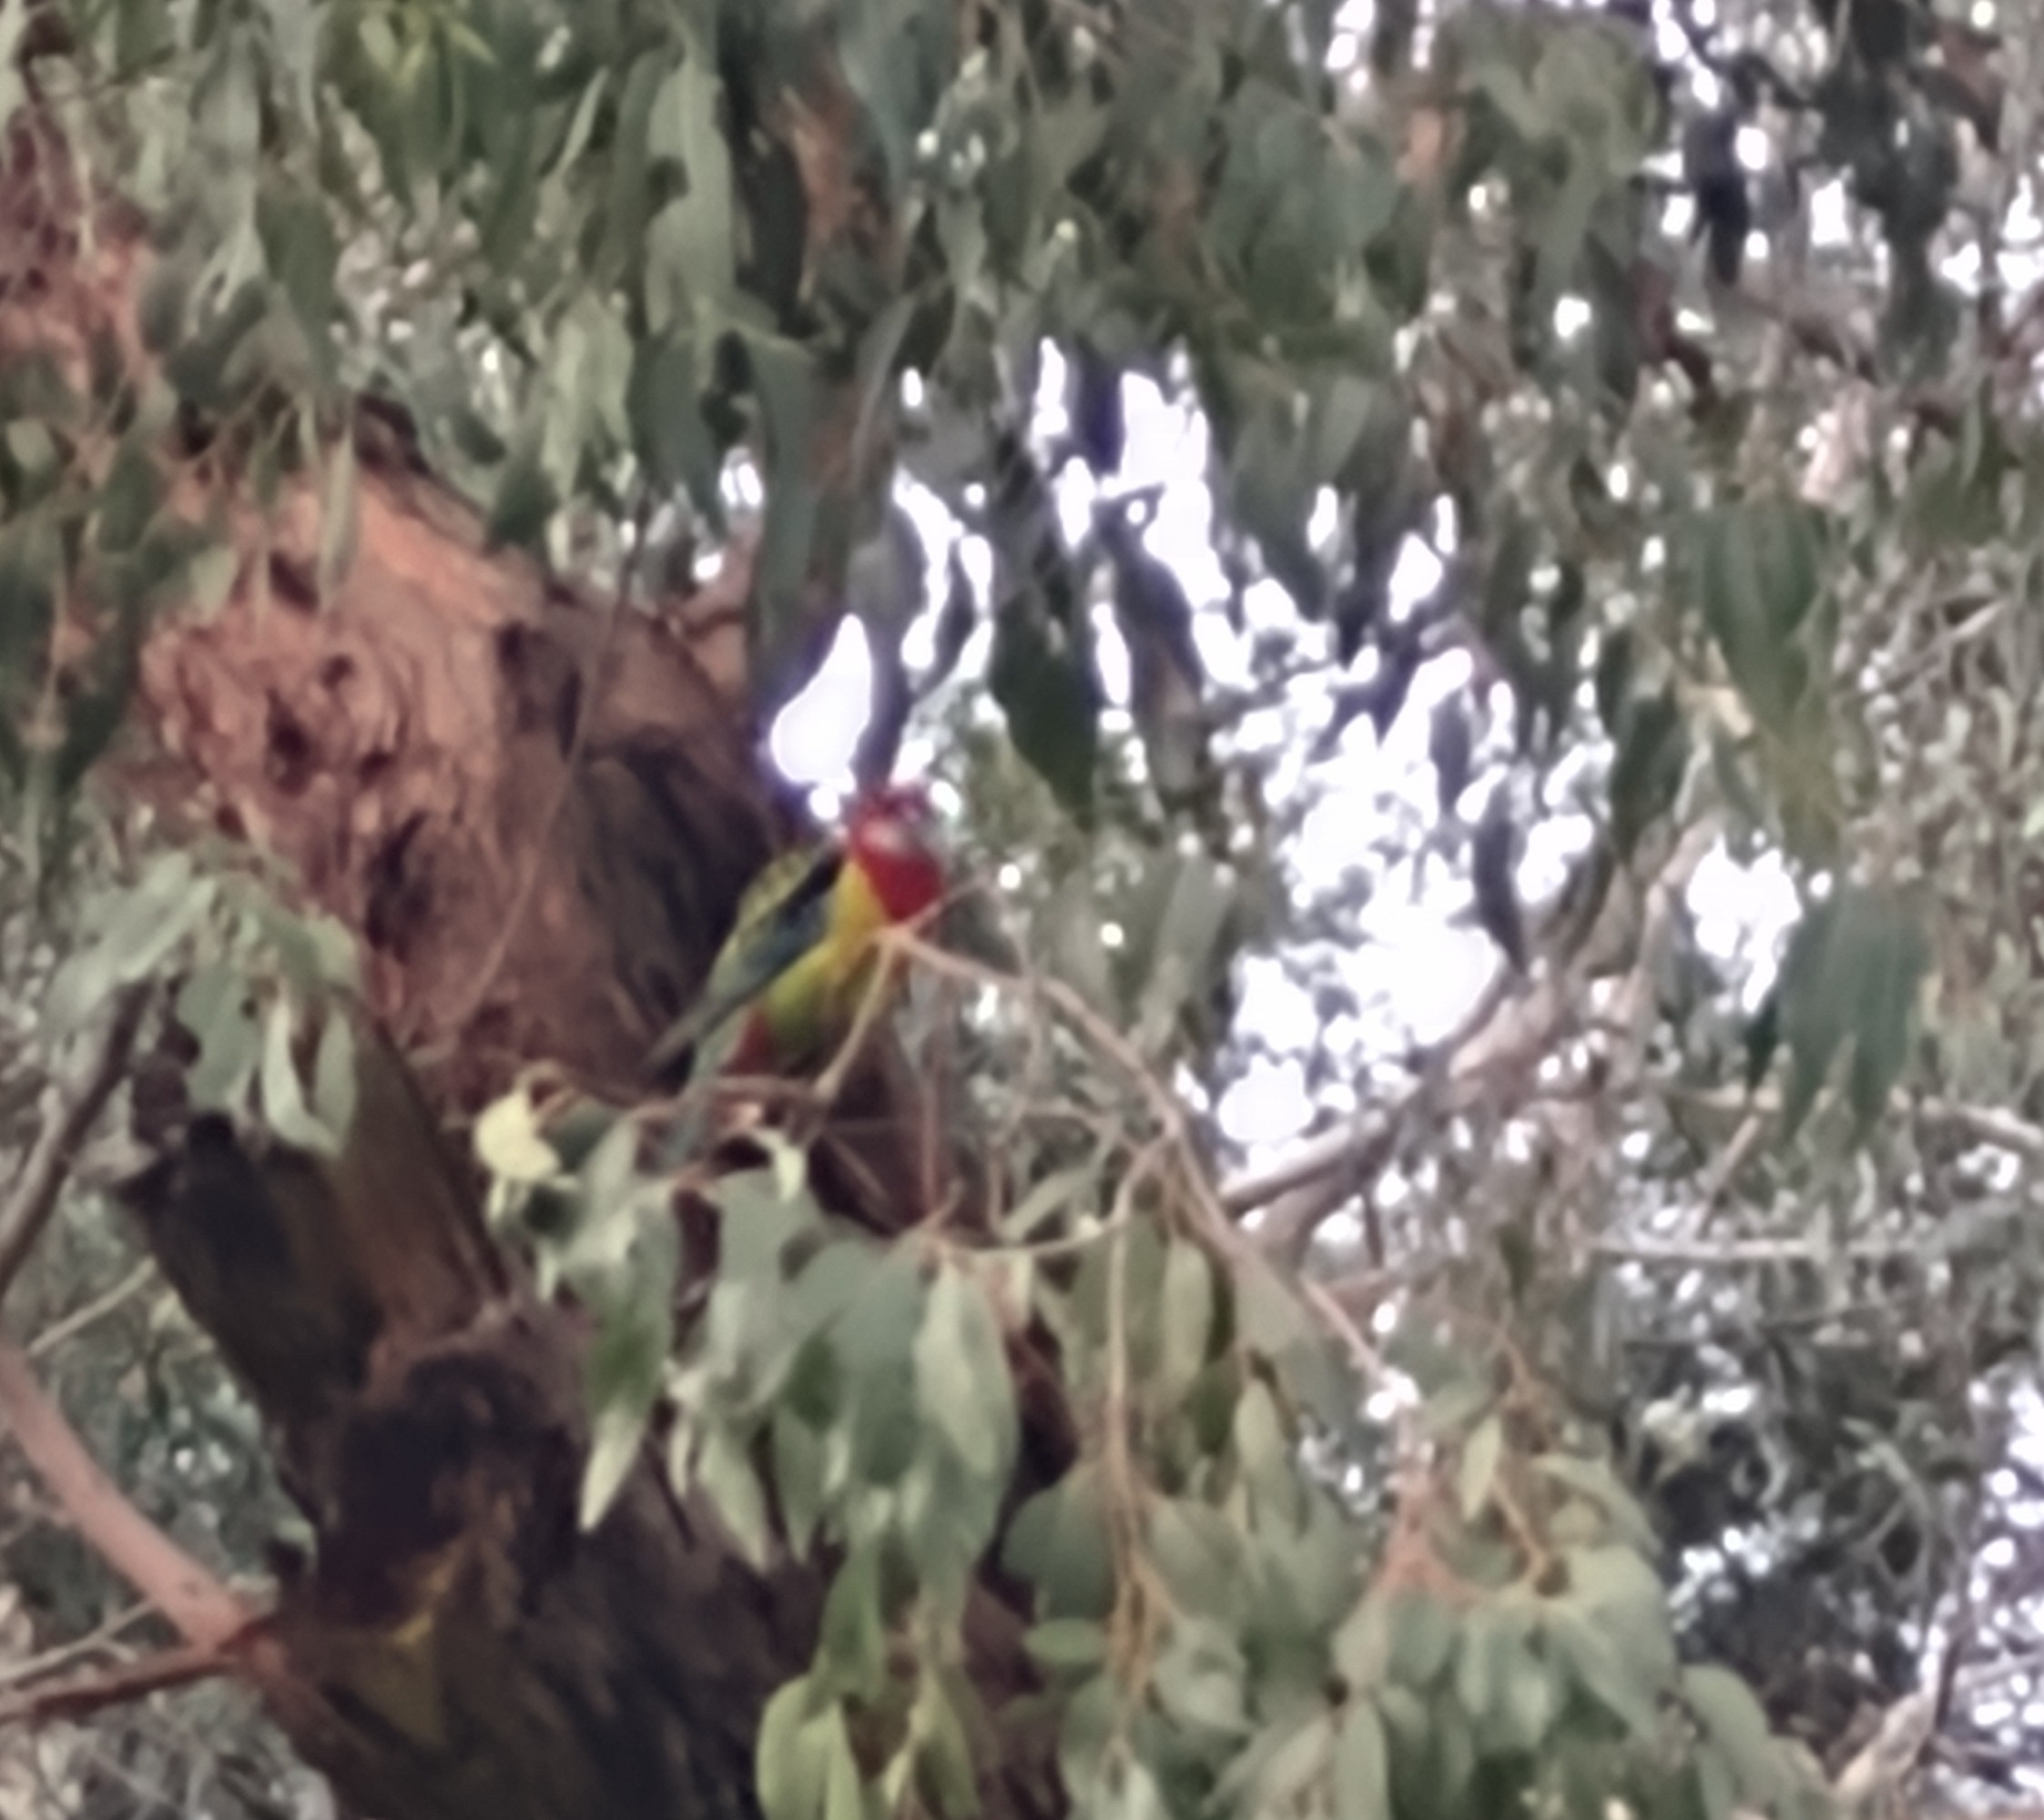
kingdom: Animalia
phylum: Chordata
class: Aves
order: Psittaciformes
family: Psittacidae
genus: Platycercus
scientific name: Platycercus eximius
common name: Eastern rosella
